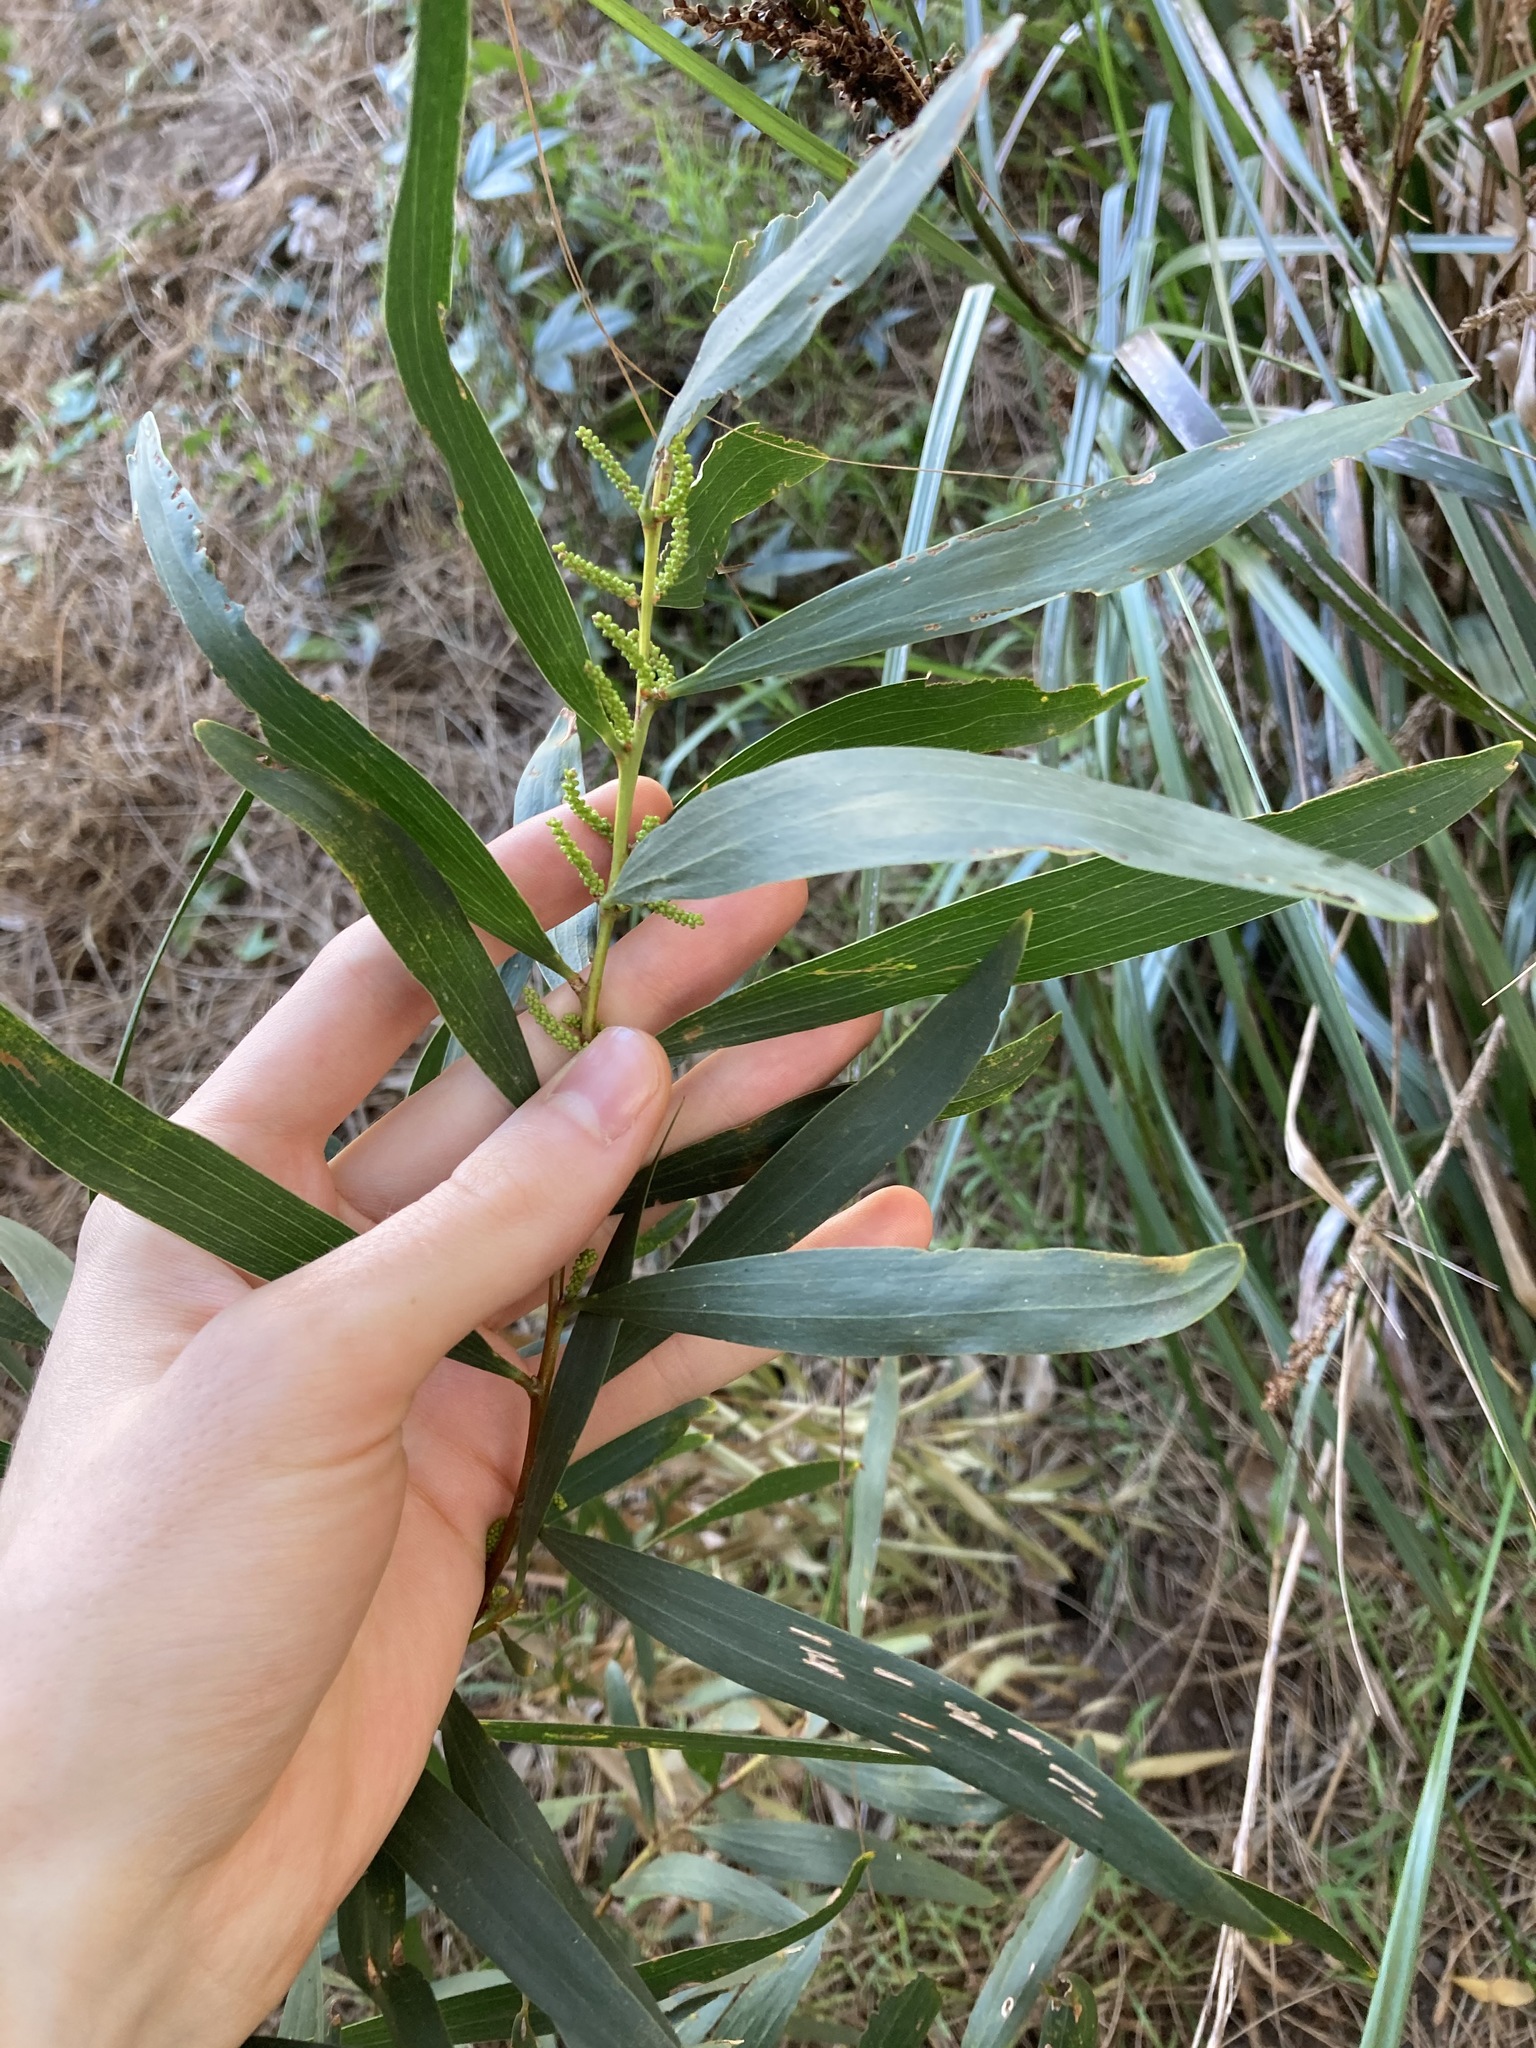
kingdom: Plantae
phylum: Tracheophyta
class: Magnoliopsida
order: Fabales
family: Fabaceae
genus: Acacia
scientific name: Acacia longifolia
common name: Sydney golden wattle
